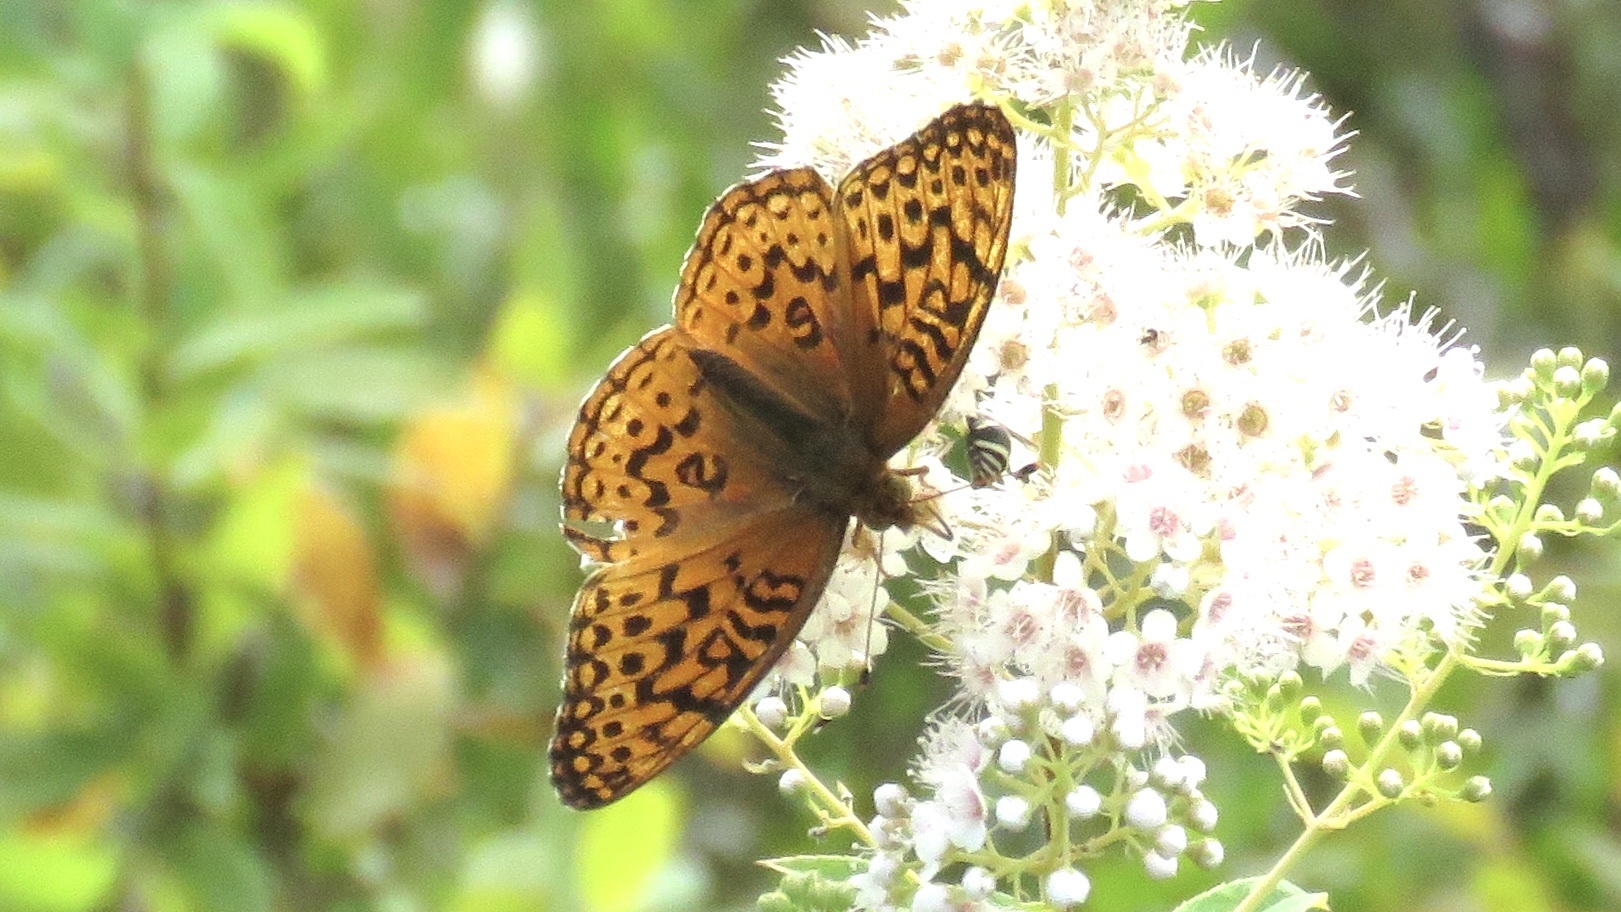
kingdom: Animalia
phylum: Arthropoda
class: Insecta
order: Lepidoptera
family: Nymphalidae
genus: Speyeria
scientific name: Speyeria aphrodite
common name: Aphrodite friitllary
